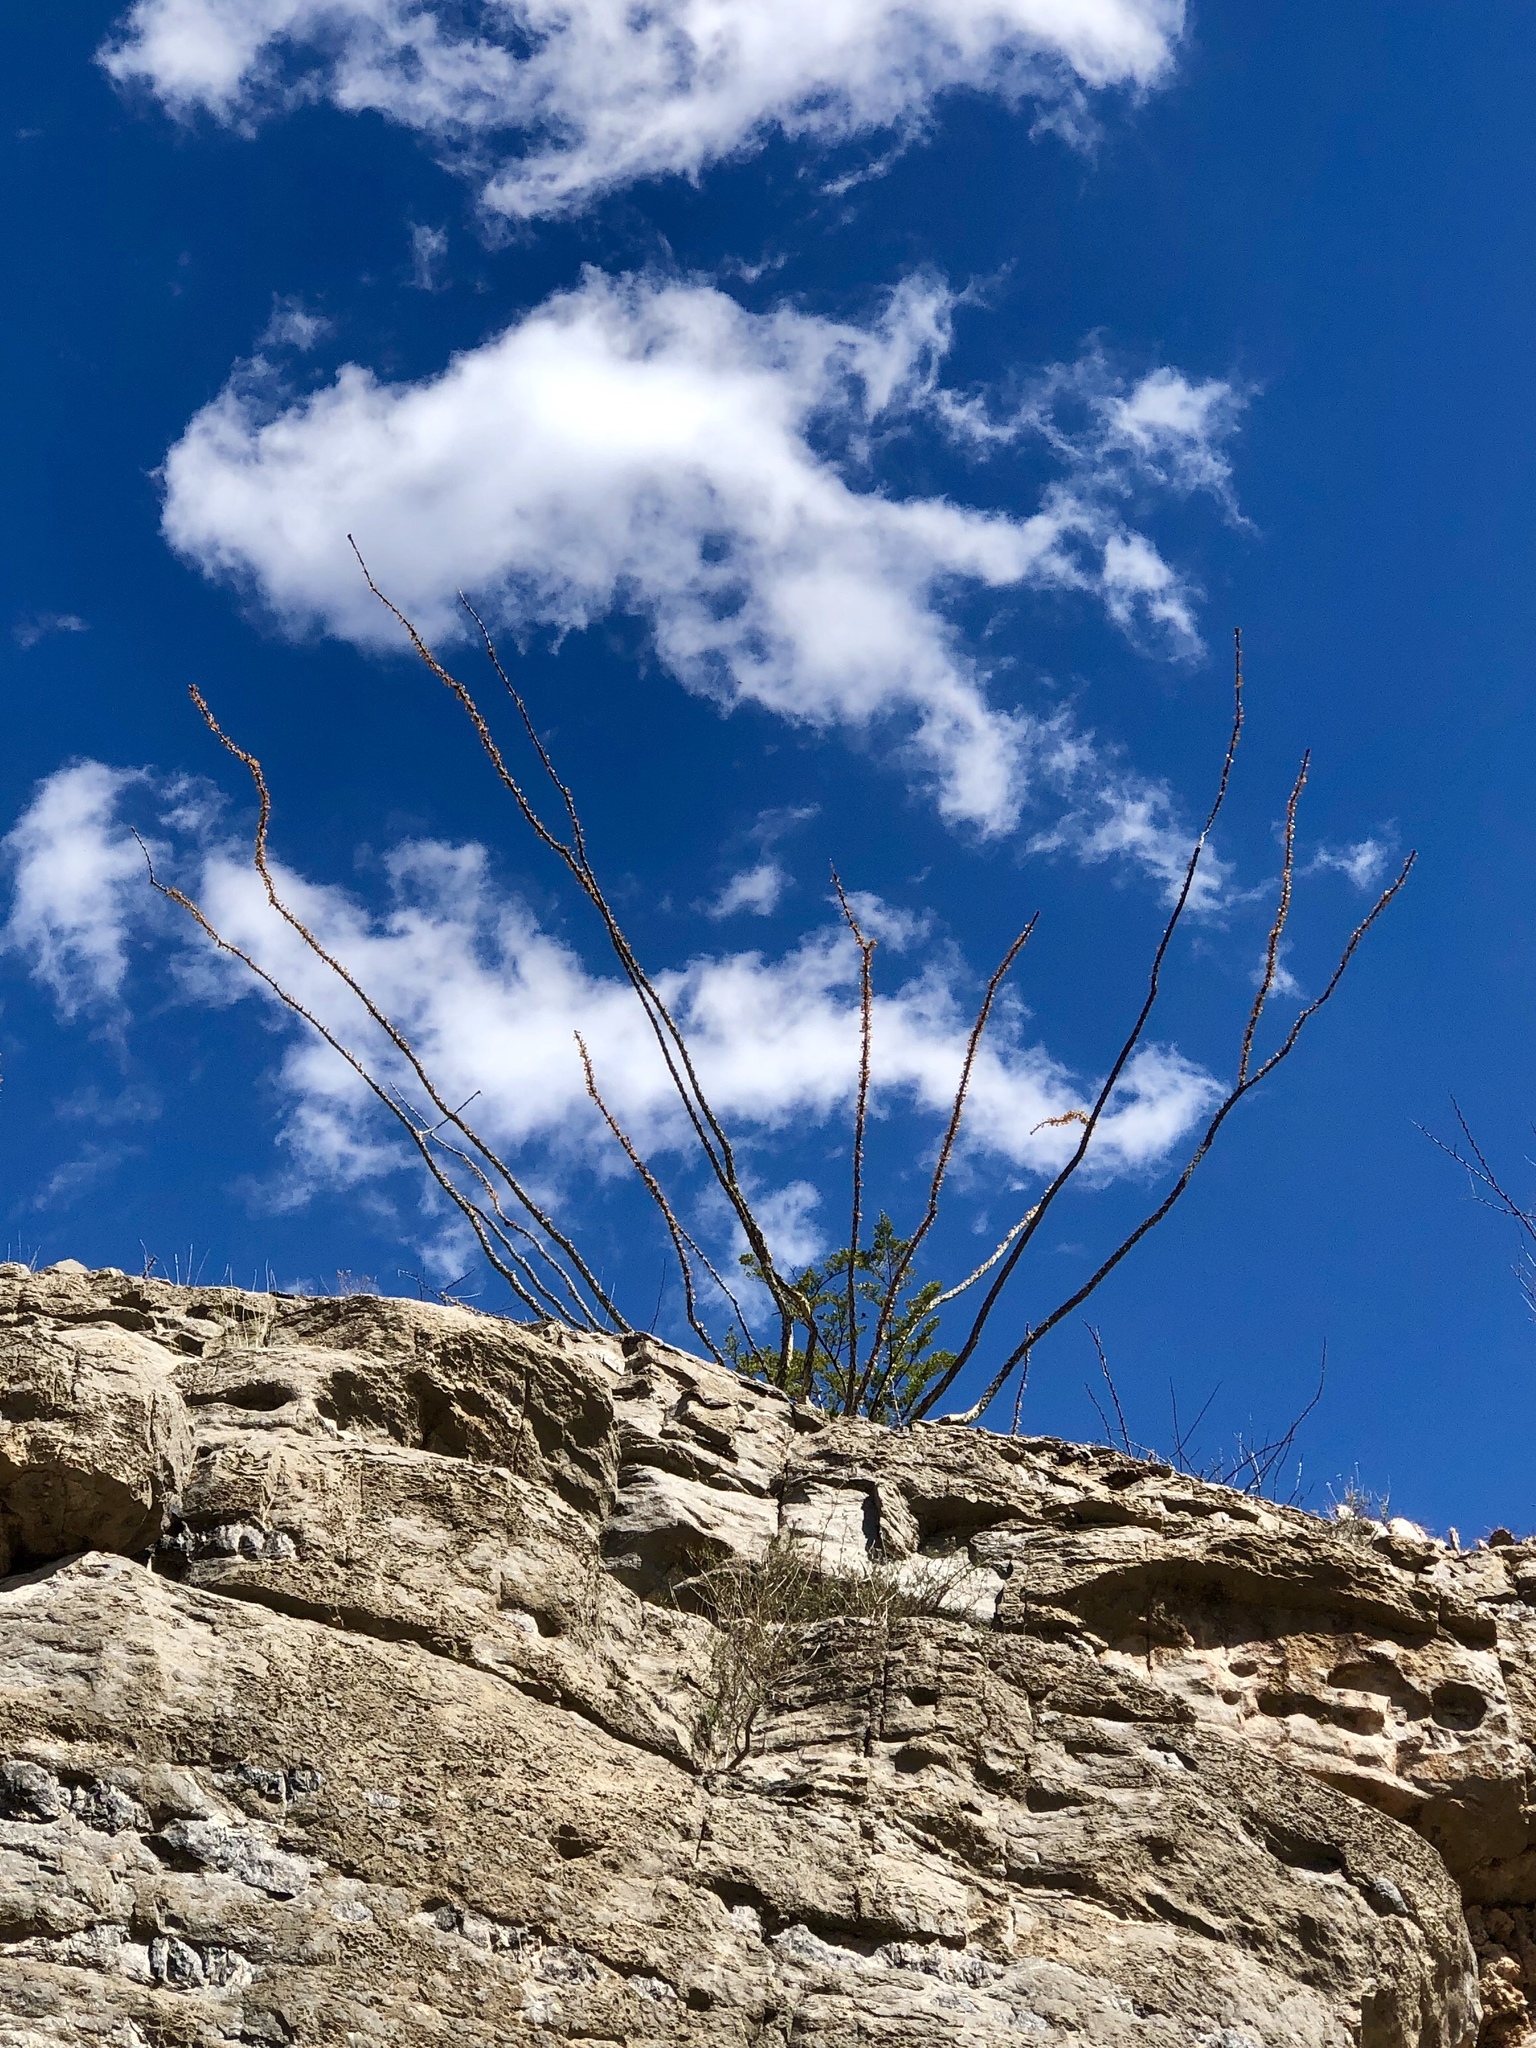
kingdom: Plantae
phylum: Tracheophyta
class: Magnoliopsida
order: Ericales
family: Fouquieriaceae
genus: Fouquieria
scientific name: Fouquieria splendens
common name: Vine-cactus
